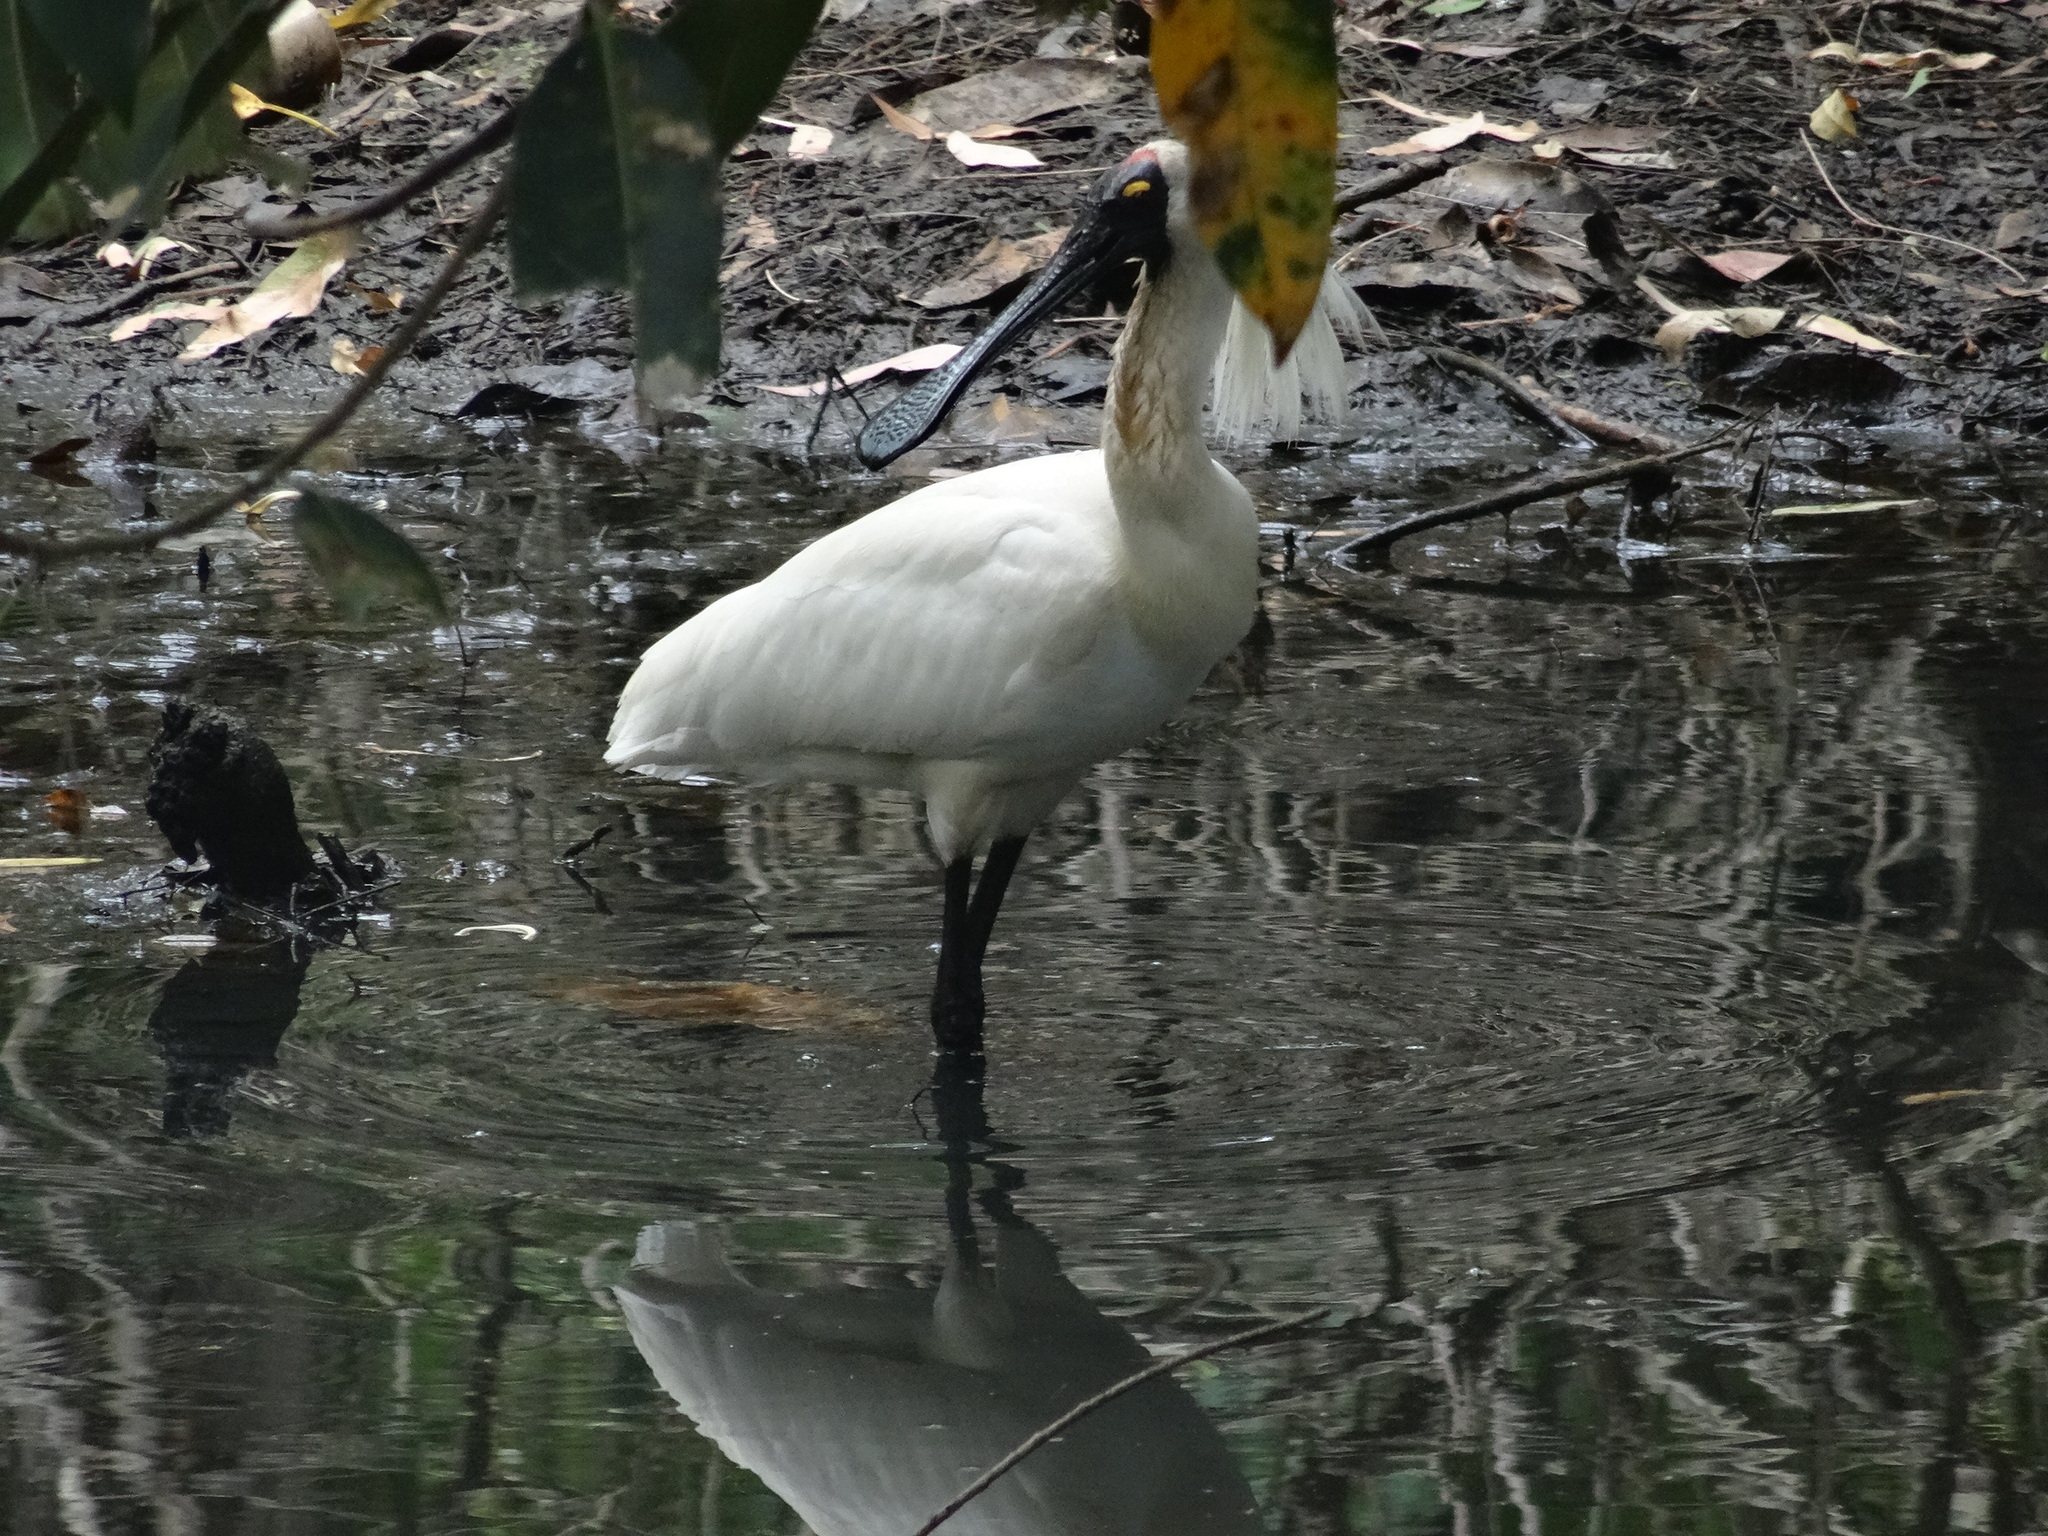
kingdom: Animalia
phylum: Chordata
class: Aves
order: Pelecaniformes
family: Threskiornithidae
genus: Platalea
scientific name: Platalea regia
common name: Royal spoonbill
